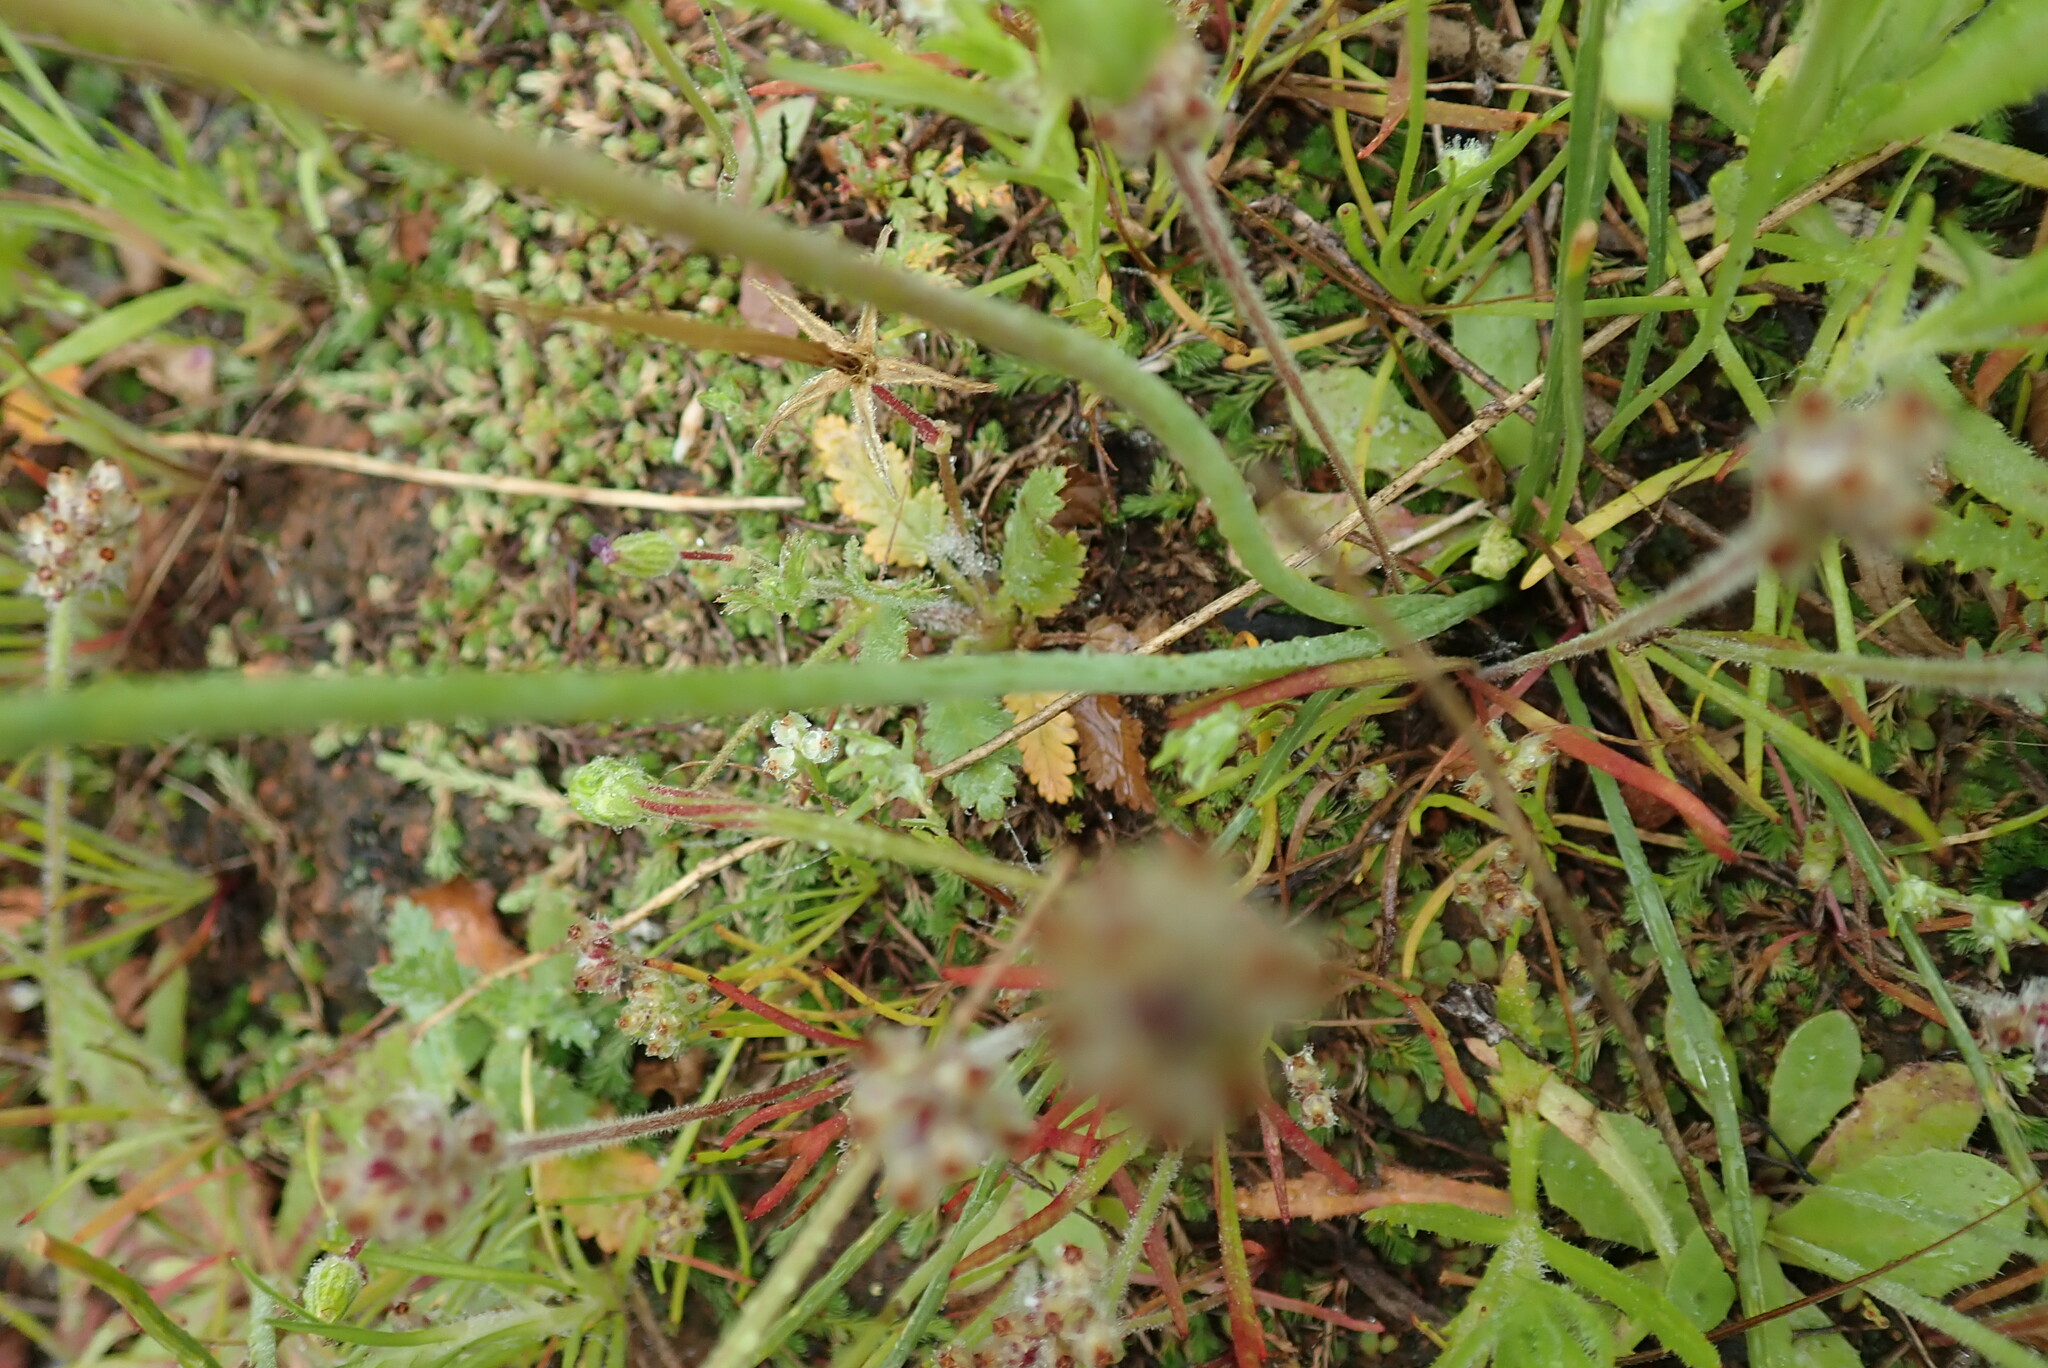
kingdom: Plantae
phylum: Tracheophyta
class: Liliopsida
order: Asparagales
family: Asparagaceae
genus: Muilla
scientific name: Muilla maritima
